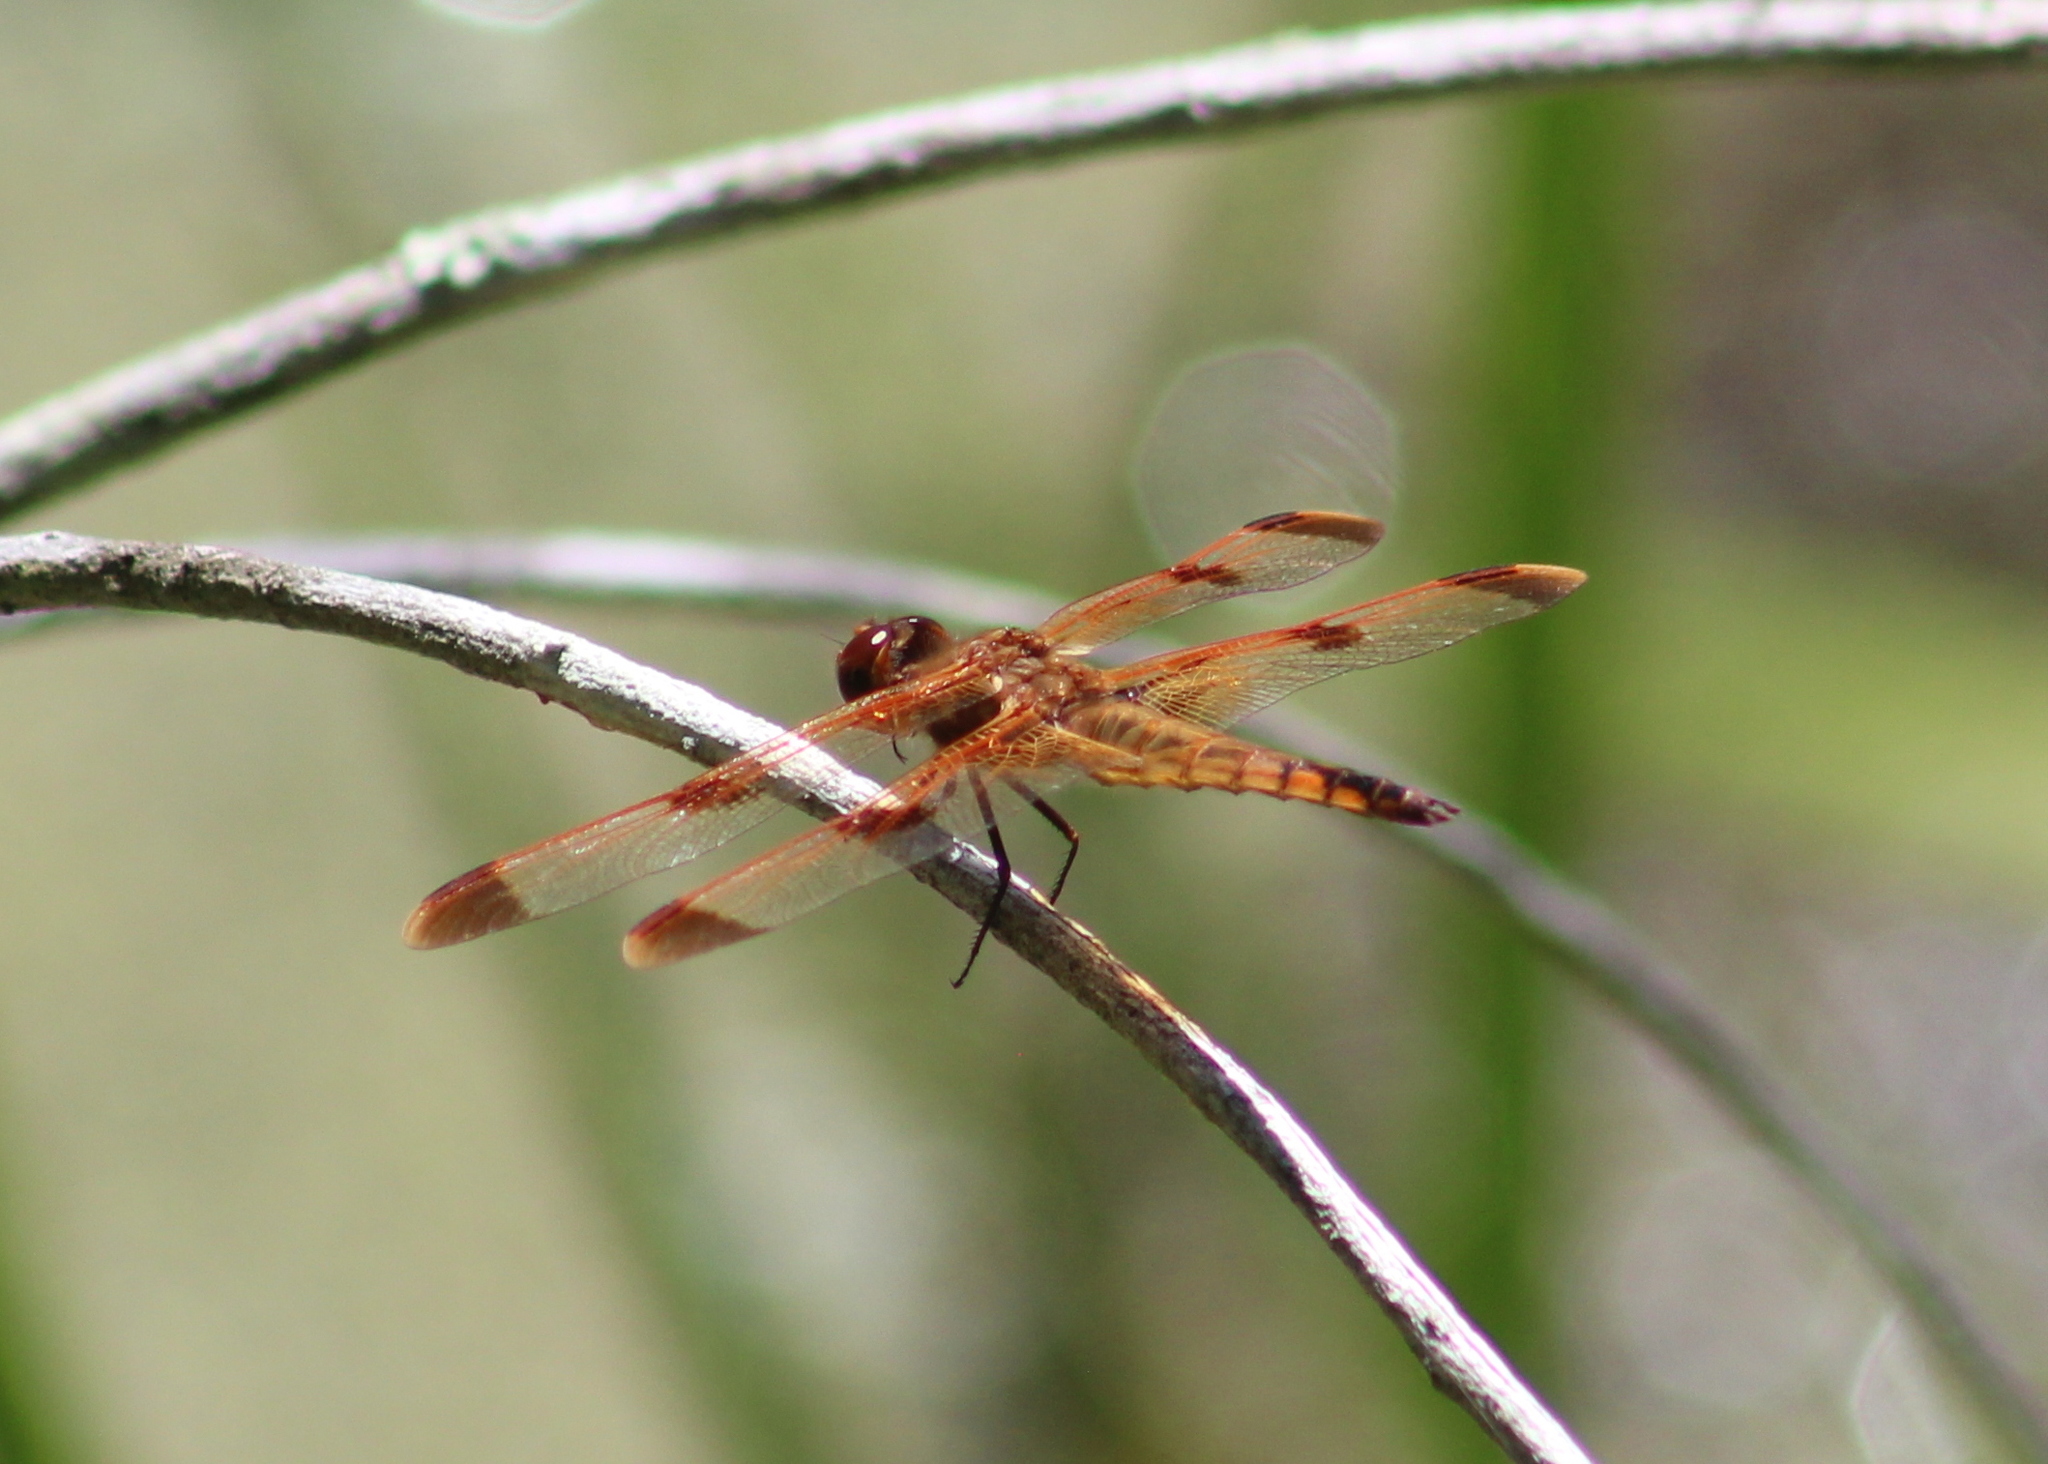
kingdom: Animalia
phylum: Arthropoda
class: Insecta
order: Odonata
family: Libellulidae
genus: Libellula
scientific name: Libellula semifasciata
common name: Painted skimmer
